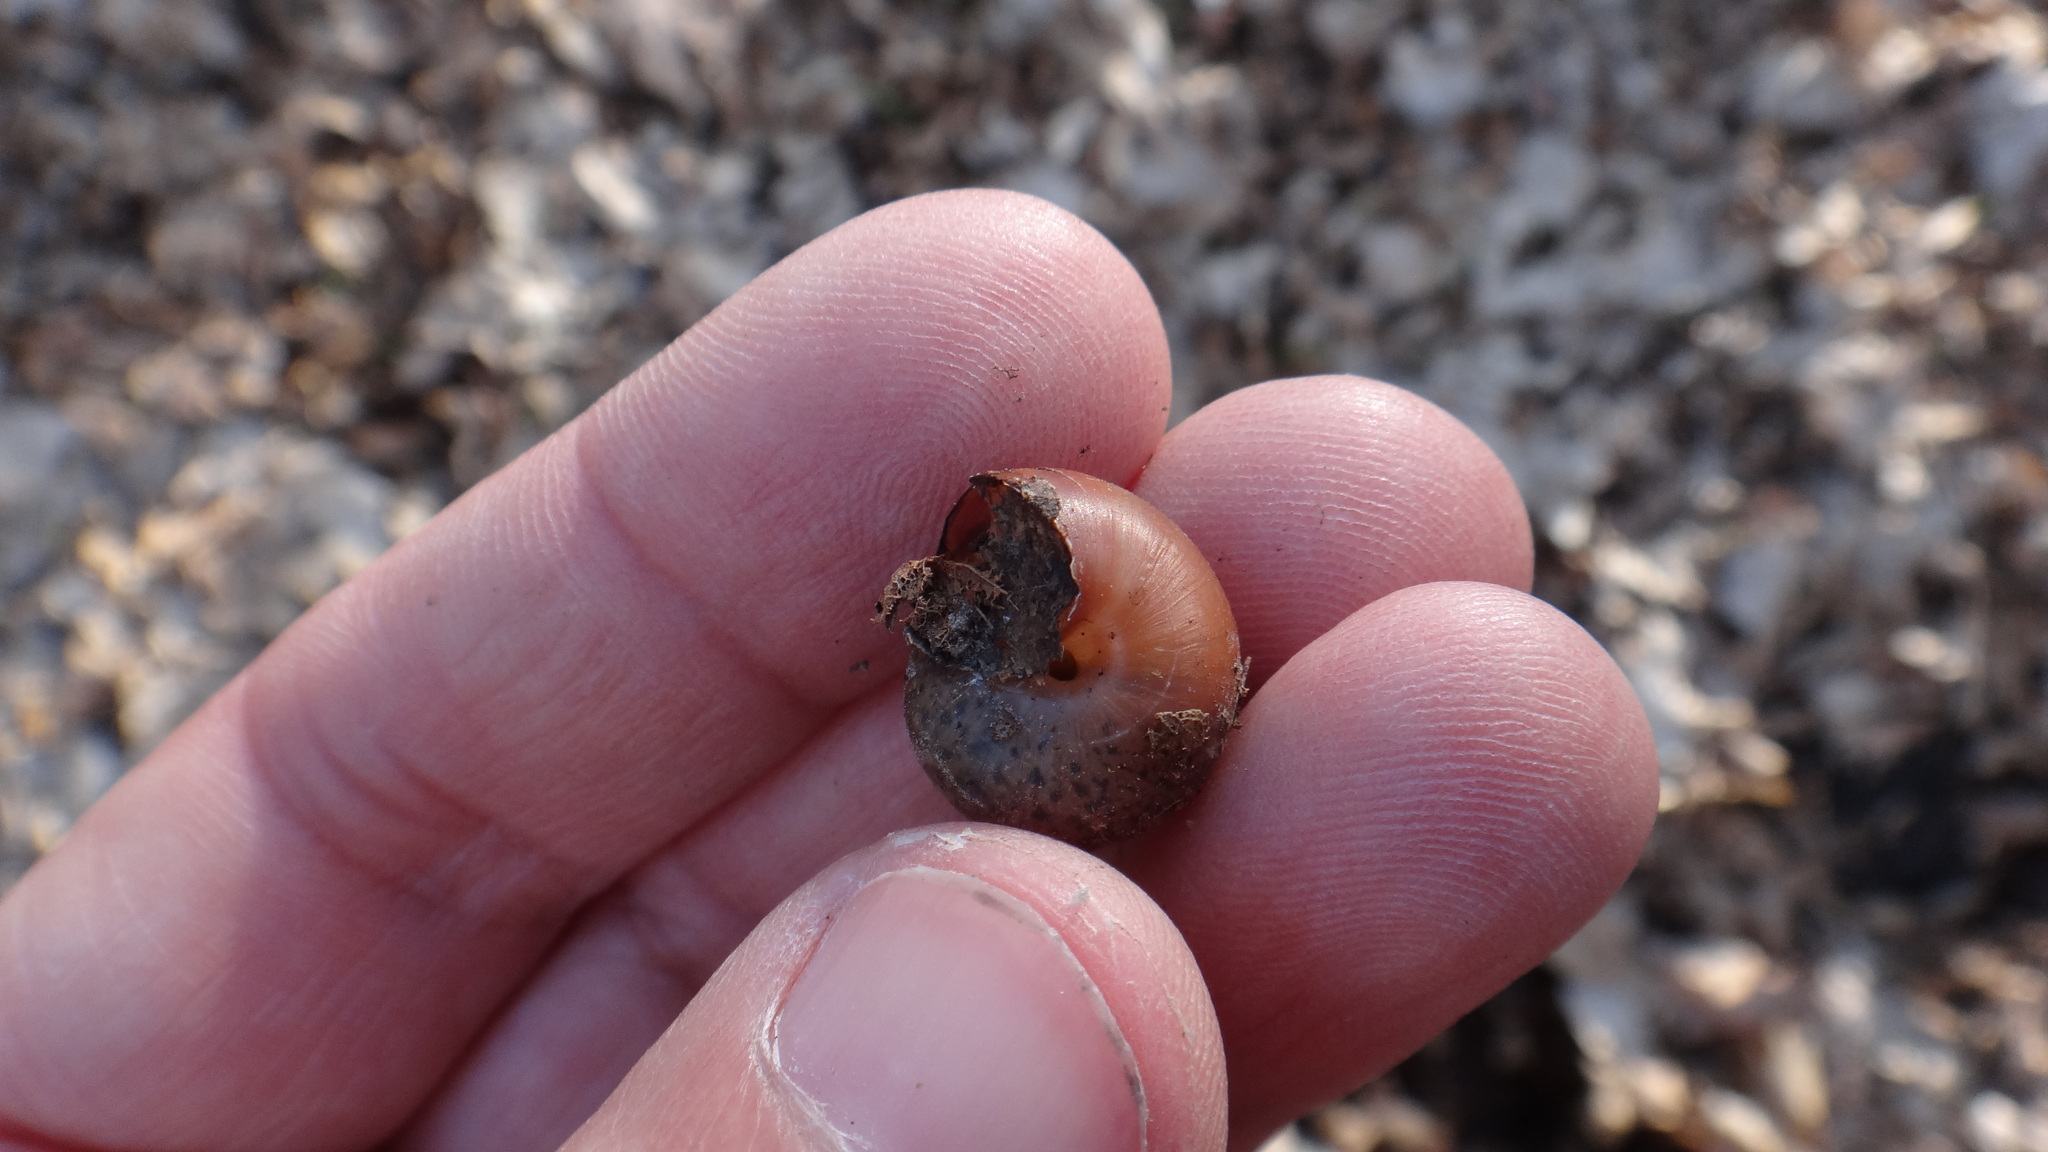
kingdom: Animalia
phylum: Mollusca
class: Gastropoda
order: Stylommatophora
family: Camaenidae
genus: Fruticicola
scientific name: Fruticicola fruticum
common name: Bush snail
